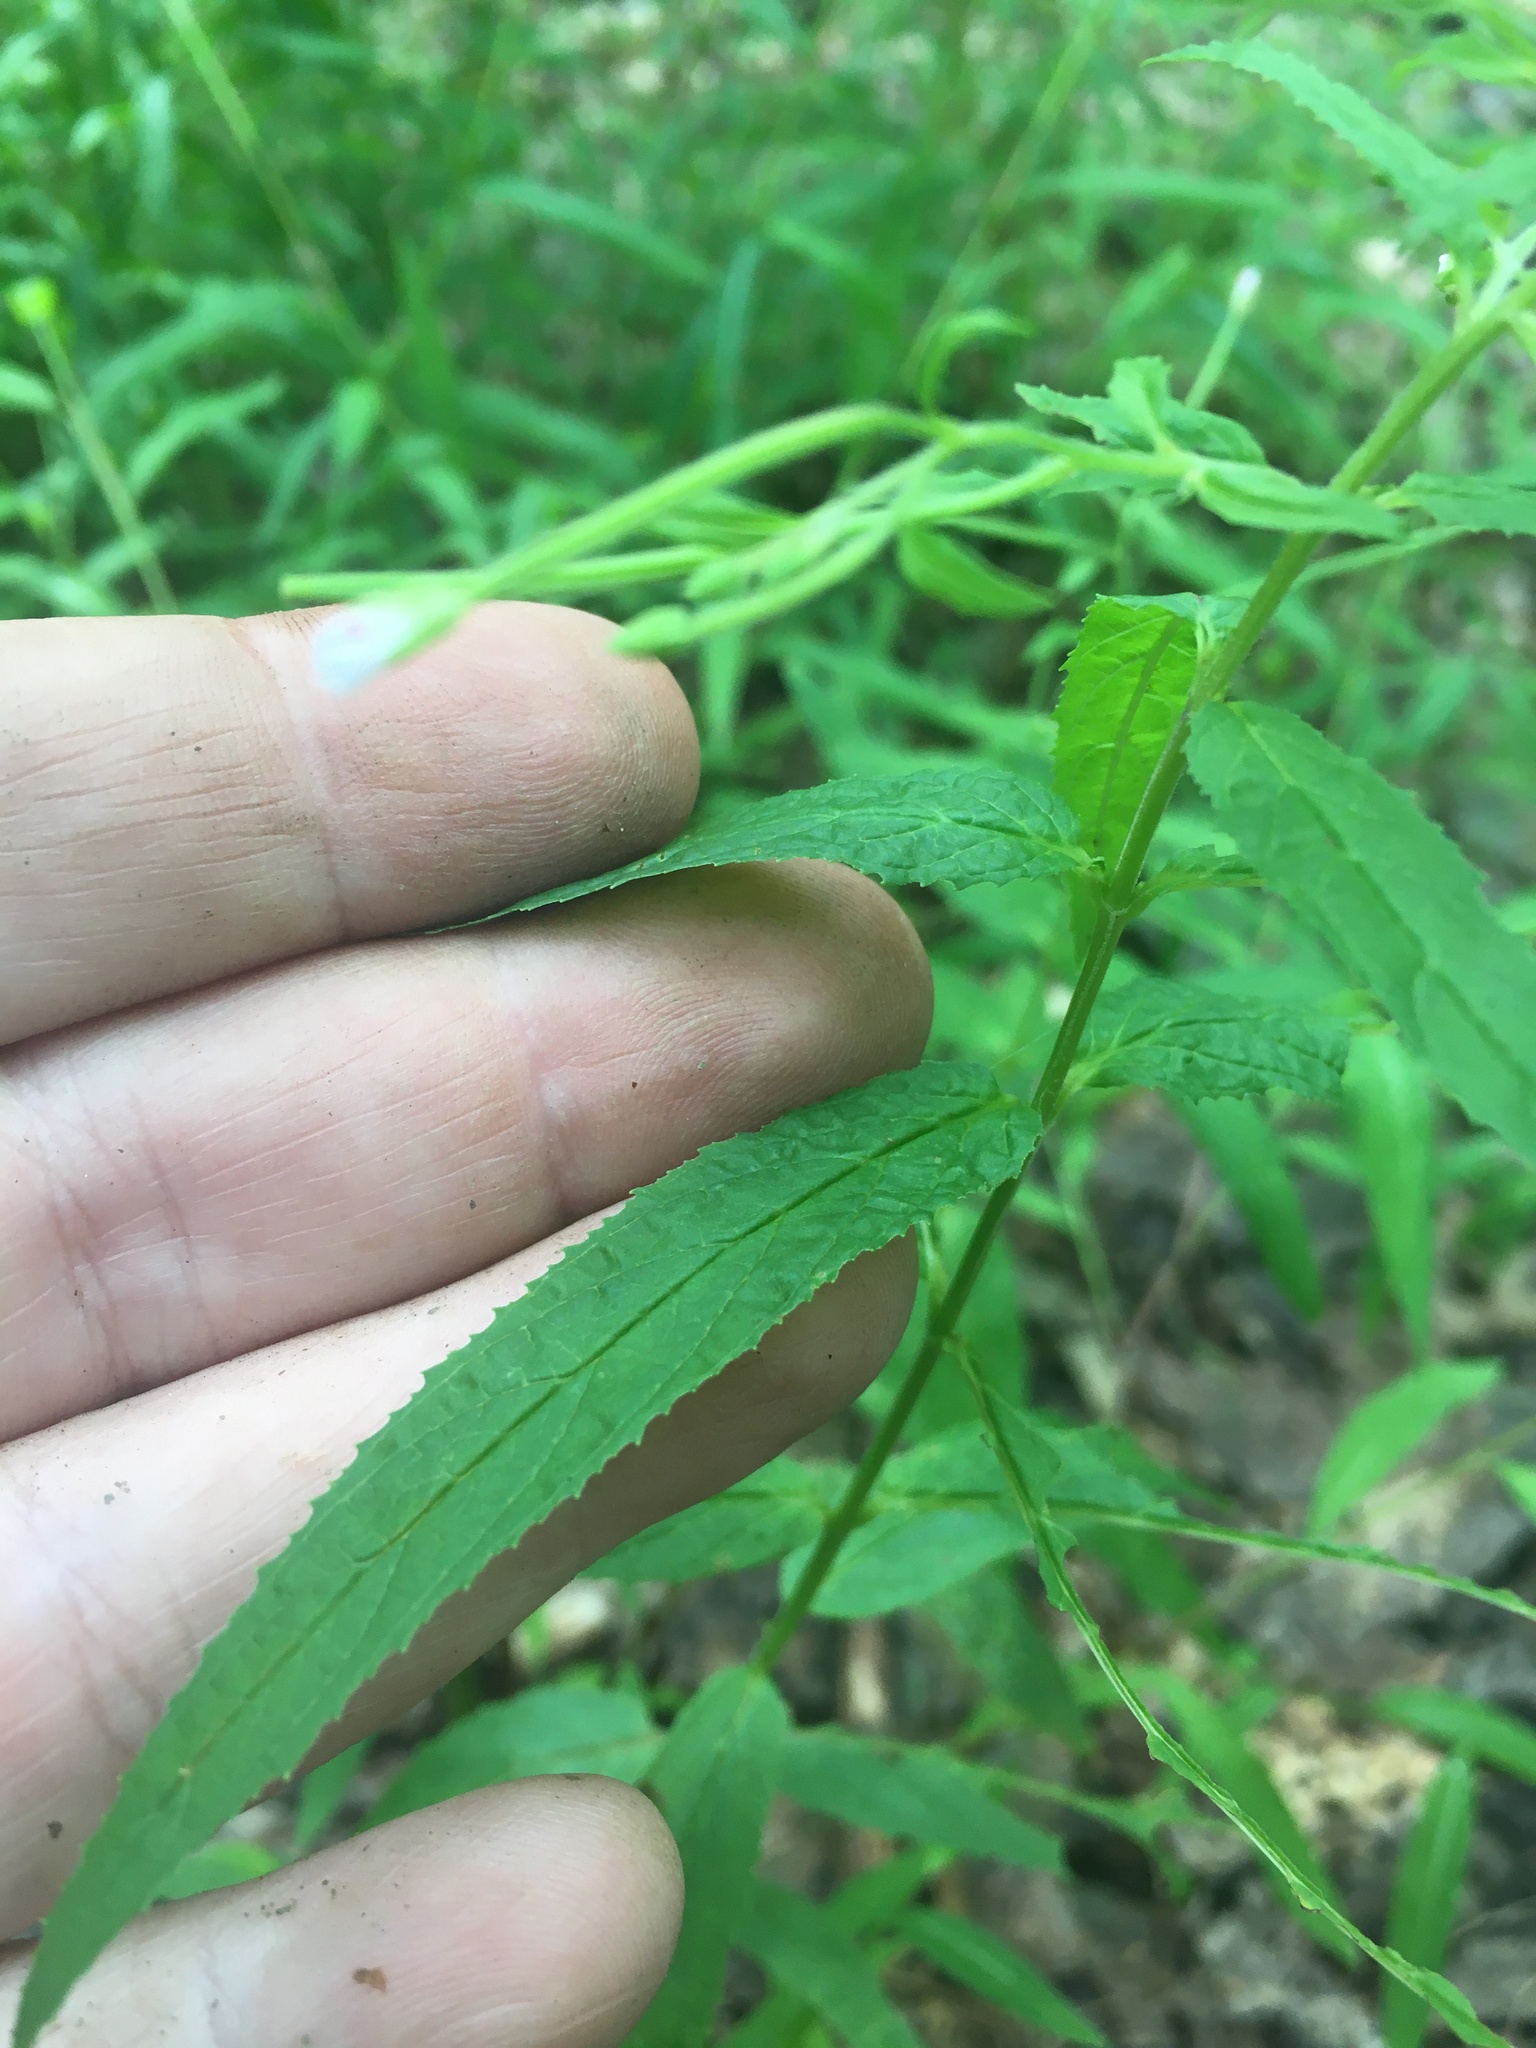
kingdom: Plantae
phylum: Tracheophyta
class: Magnoliopsida
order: Myrtales
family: Onagraceae
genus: Epilobium
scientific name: Epilobium coloratum
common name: Bronze willowherb
